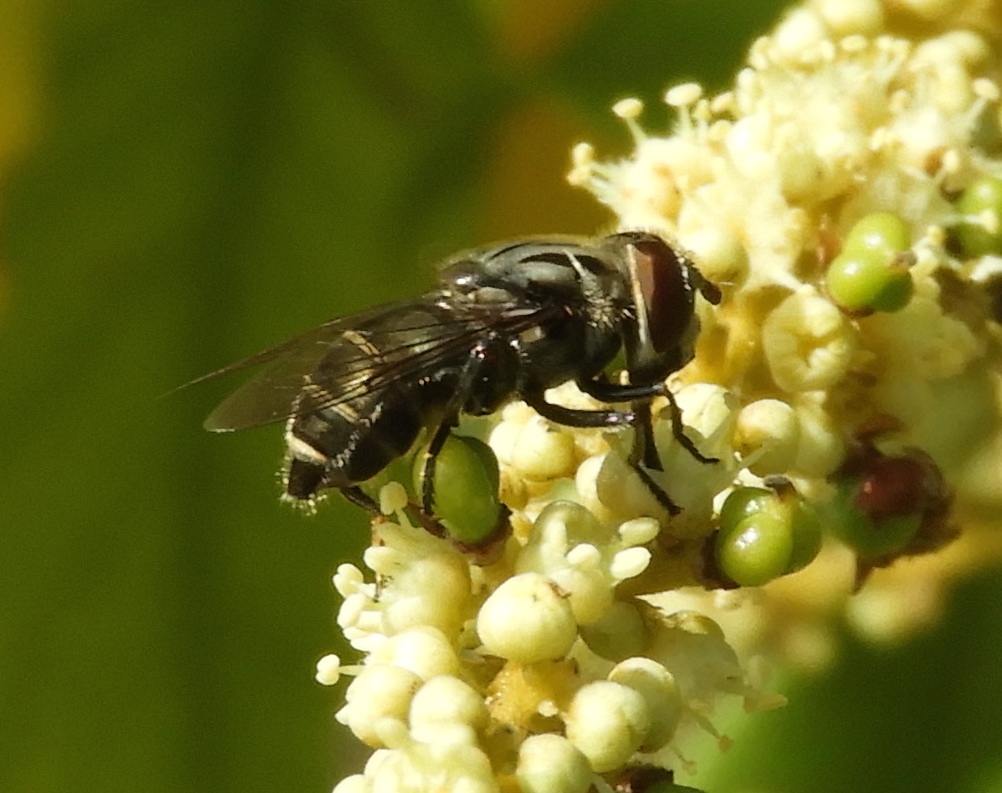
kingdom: Animalia
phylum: Arthropoda
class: Insecta
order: Diptera
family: Syrphidae
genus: Palpada
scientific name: Palpada furcata
